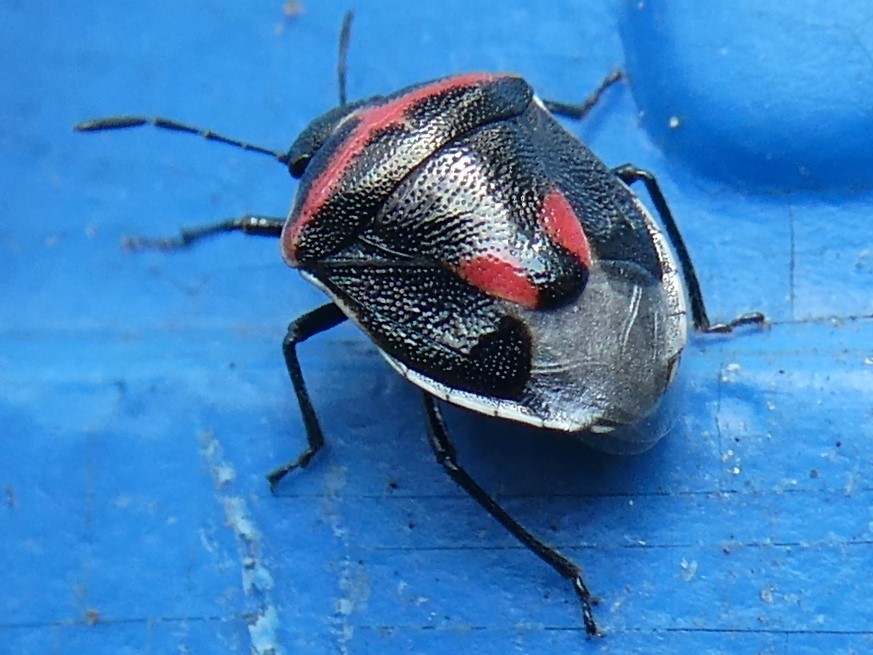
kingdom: Animalia
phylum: Arthropoda
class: Insecta
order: Hemiptera
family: Pentatomidae
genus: Cosmopepla
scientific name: Cosmopepla lintneriana
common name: Twice-stabbed stink bug
